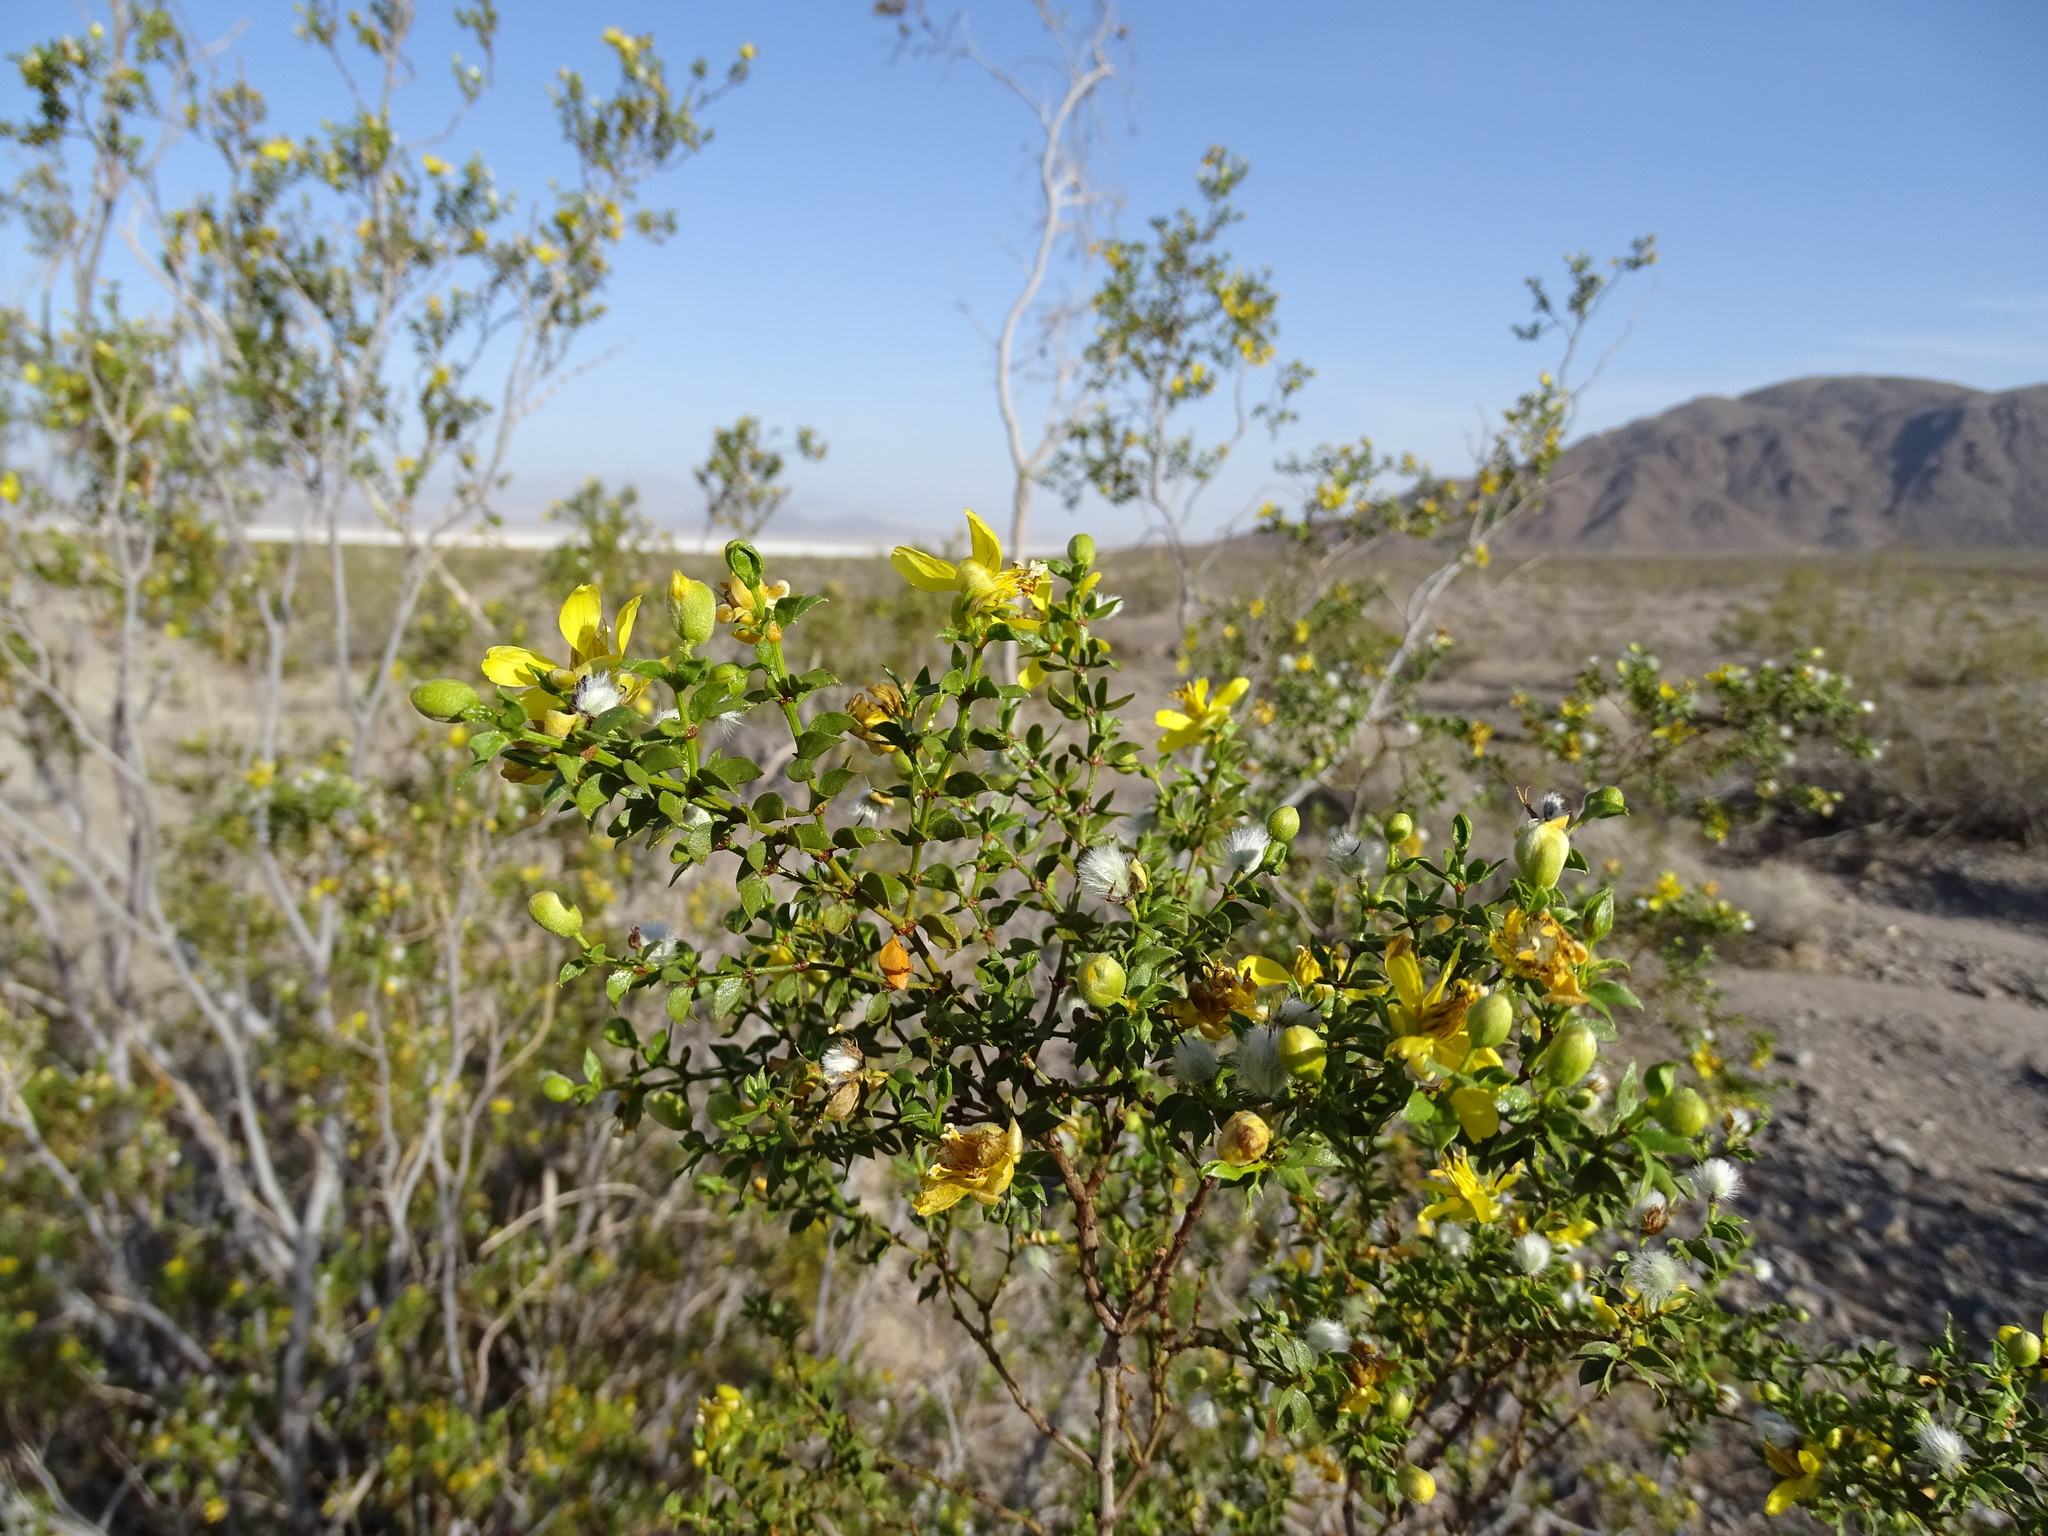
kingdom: Plantae
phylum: Tracheophyta
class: Magnoliopsida
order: Zygophyllales
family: Zygophyllaceae
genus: Larrea
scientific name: Larrea tridentata
